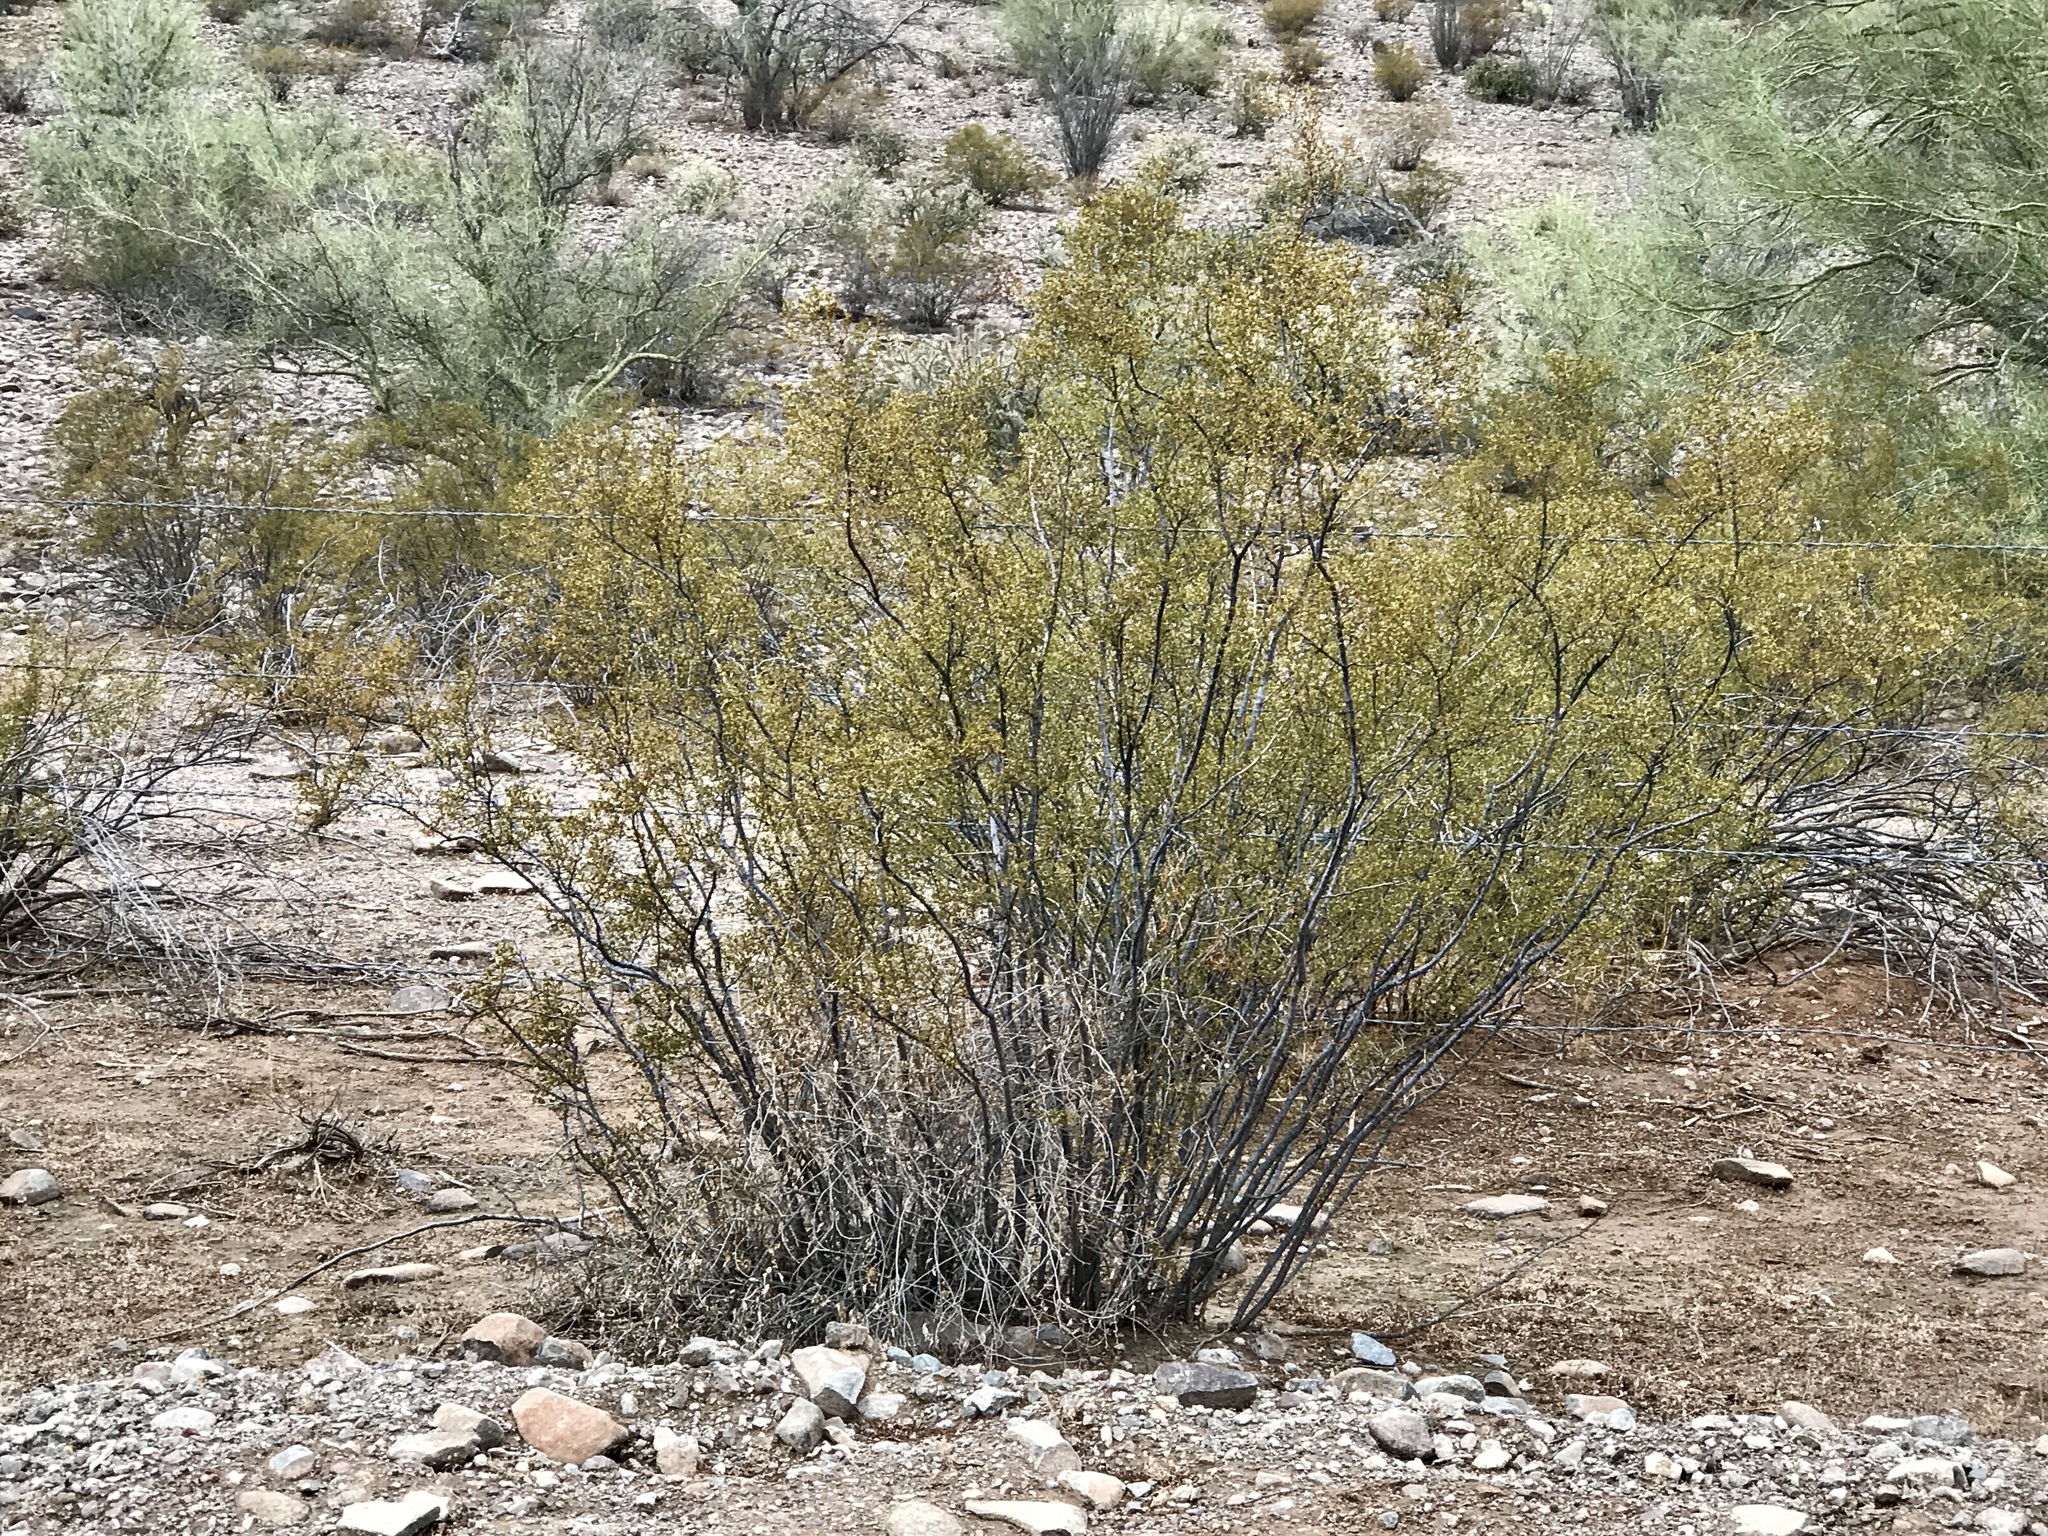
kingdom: Plantae
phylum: Tracheophyta
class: Magnoliopsida
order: Zygophyllales
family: Zygophyllaceae
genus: Larrea
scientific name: Larrea tridentata
